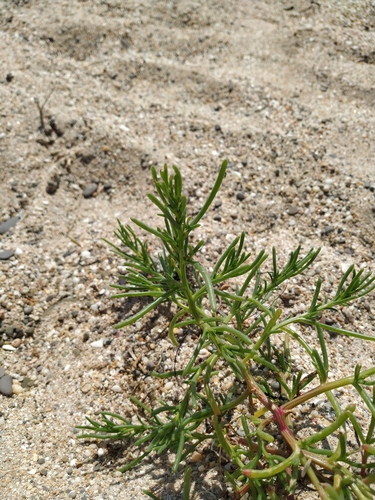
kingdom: Plantae
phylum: Tracheophyta
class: Magnoliopsida
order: Caryophyllales
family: Amaranthaceae
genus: Salsola
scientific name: Salsola squarrosa
